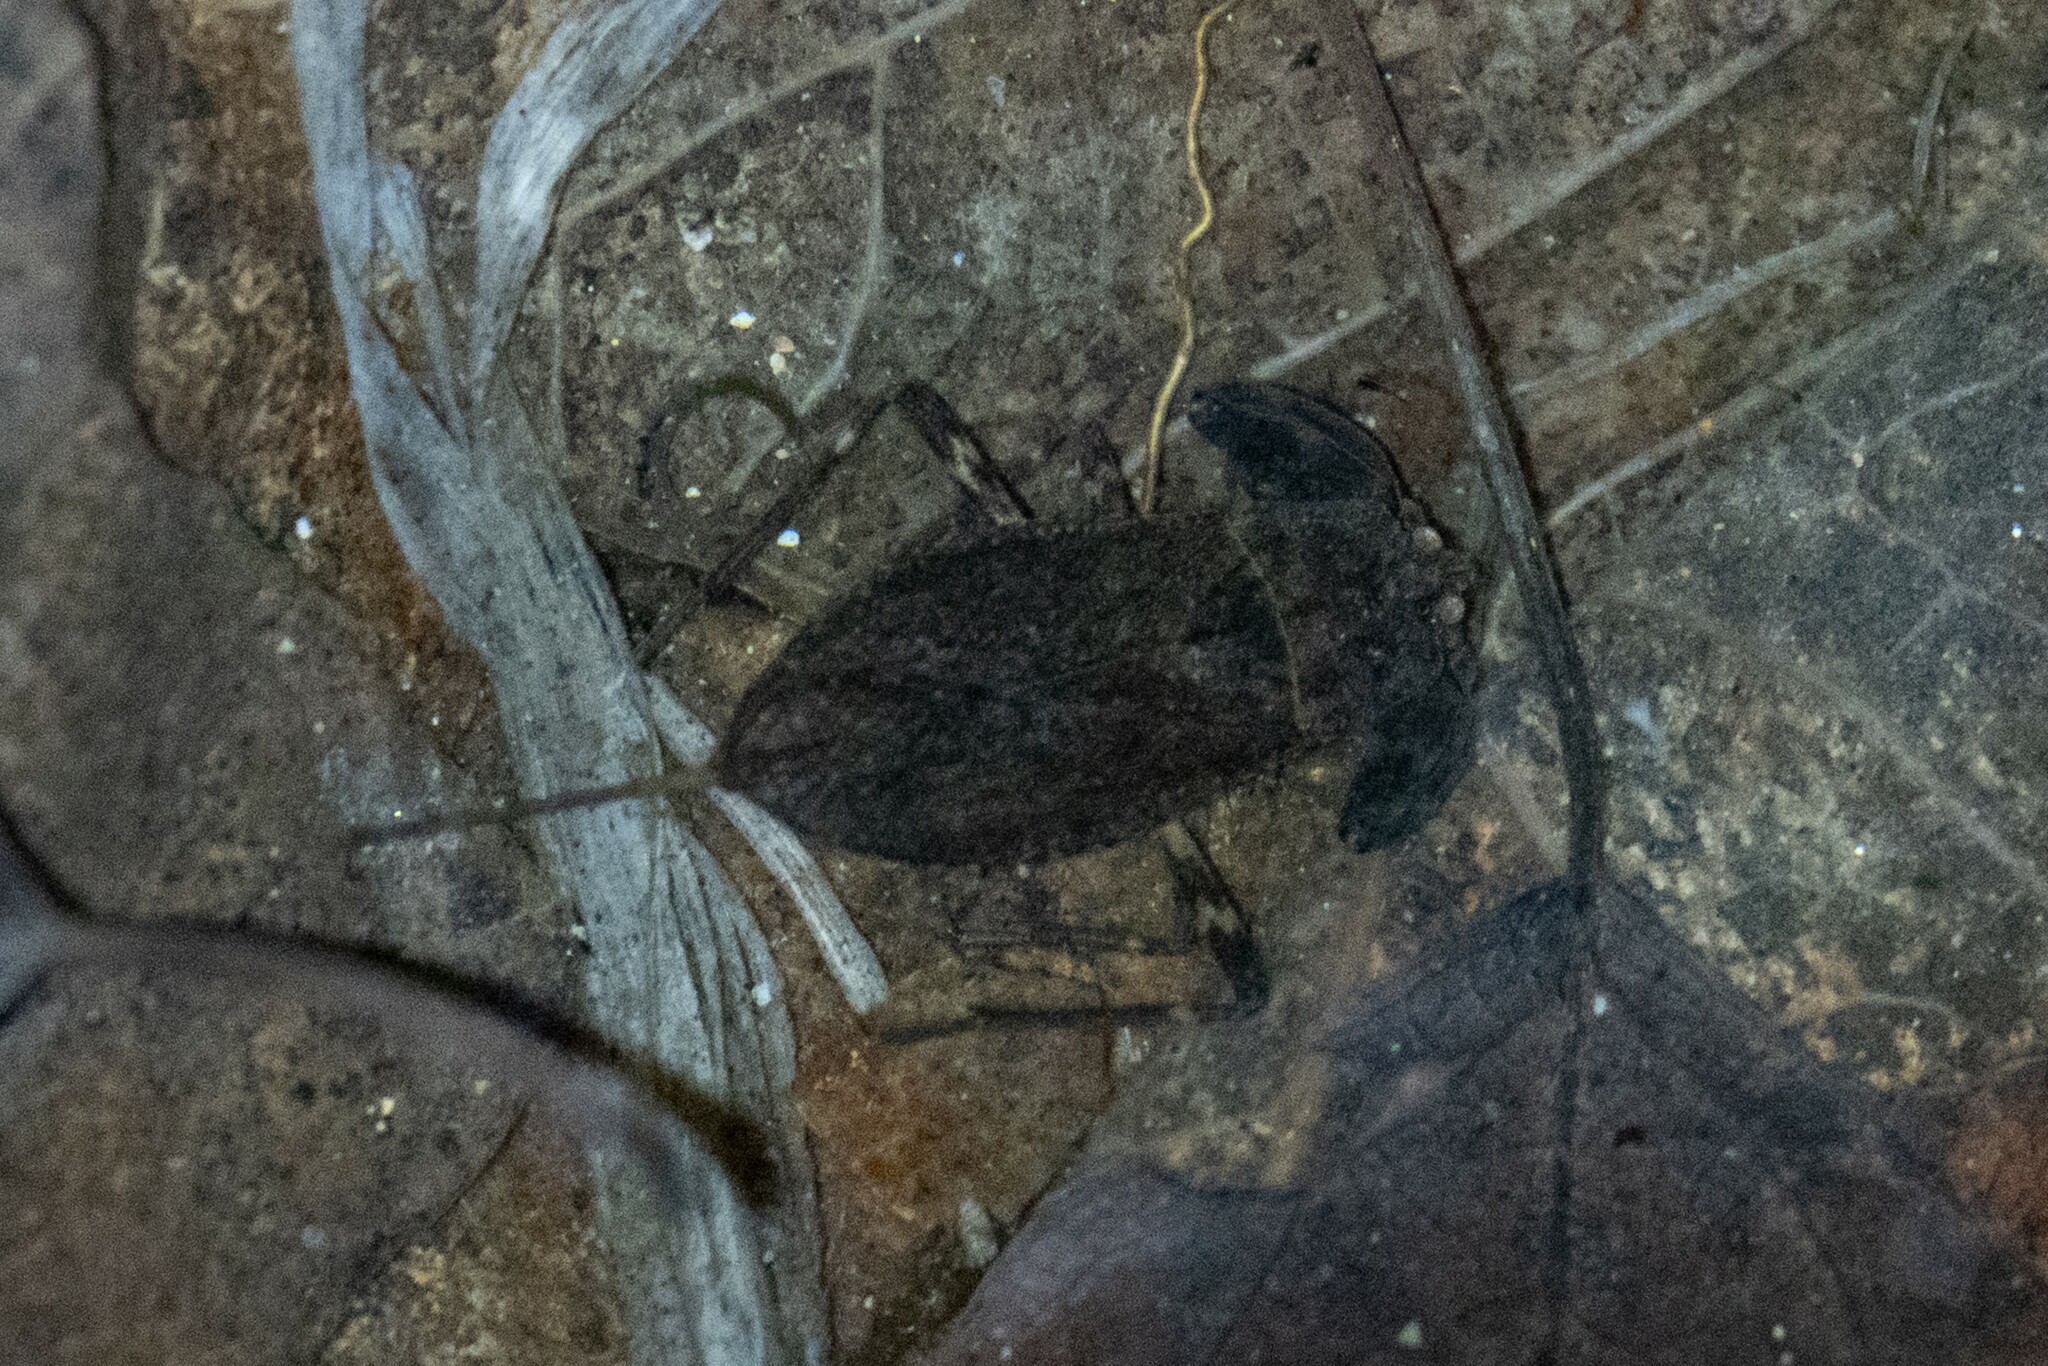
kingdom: Animalia
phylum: Arthropoda
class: Insecta
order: Hemiptera
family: Nepidae
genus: Nepa
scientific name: Nepa cinerea
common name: Water scorpion
